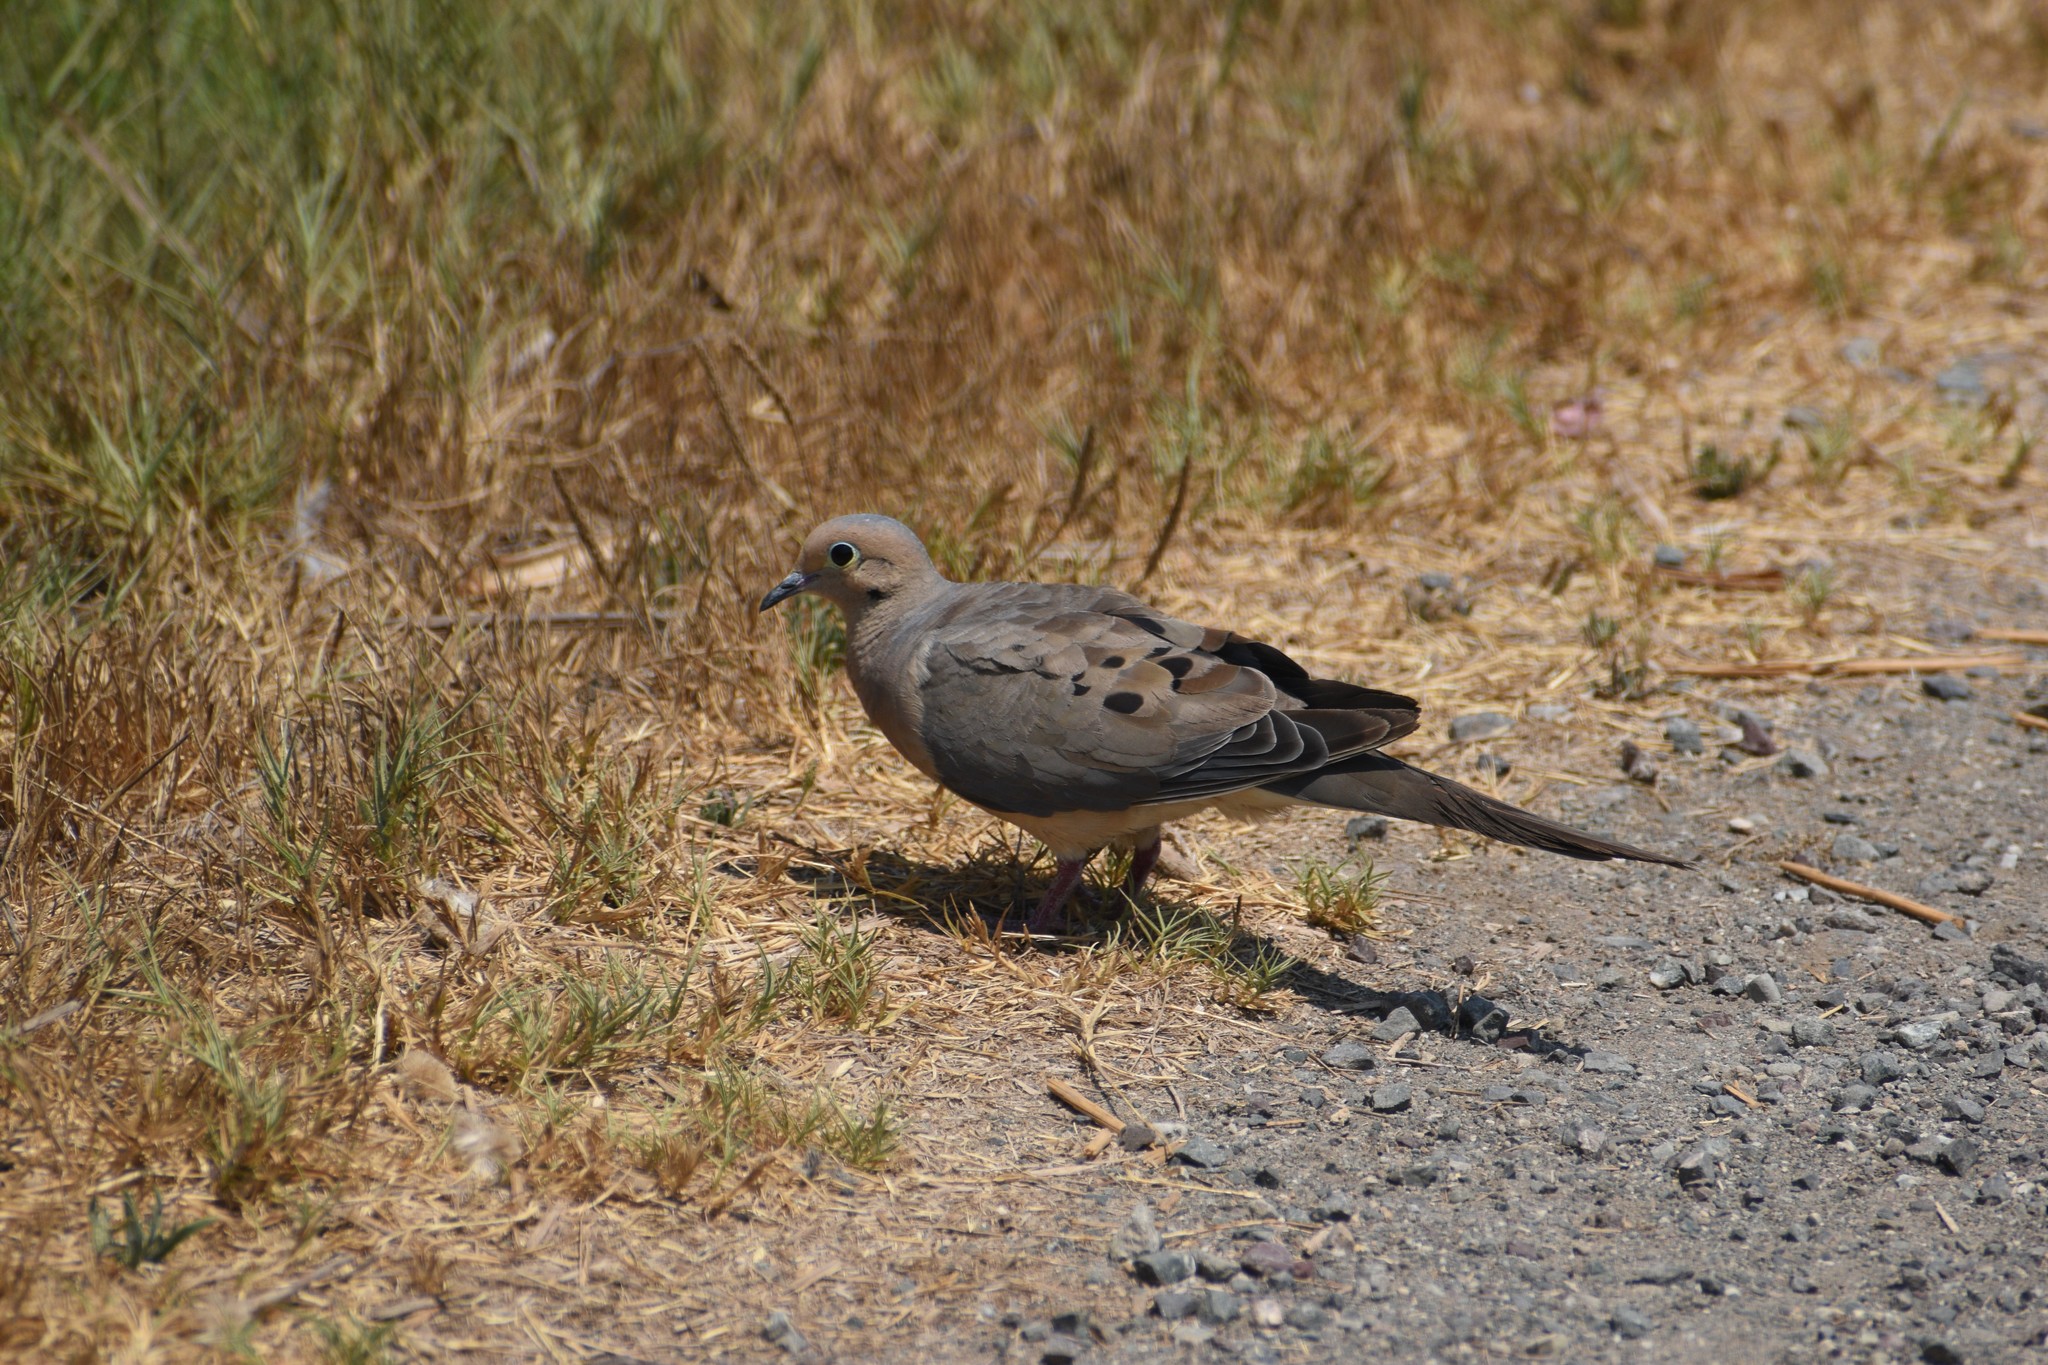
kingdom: Animalia
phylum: Chordata
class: Aves
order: Columbiformes
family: Columbidae
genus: Zenaida
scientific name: Zenaida macroura
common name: Mourning dove
